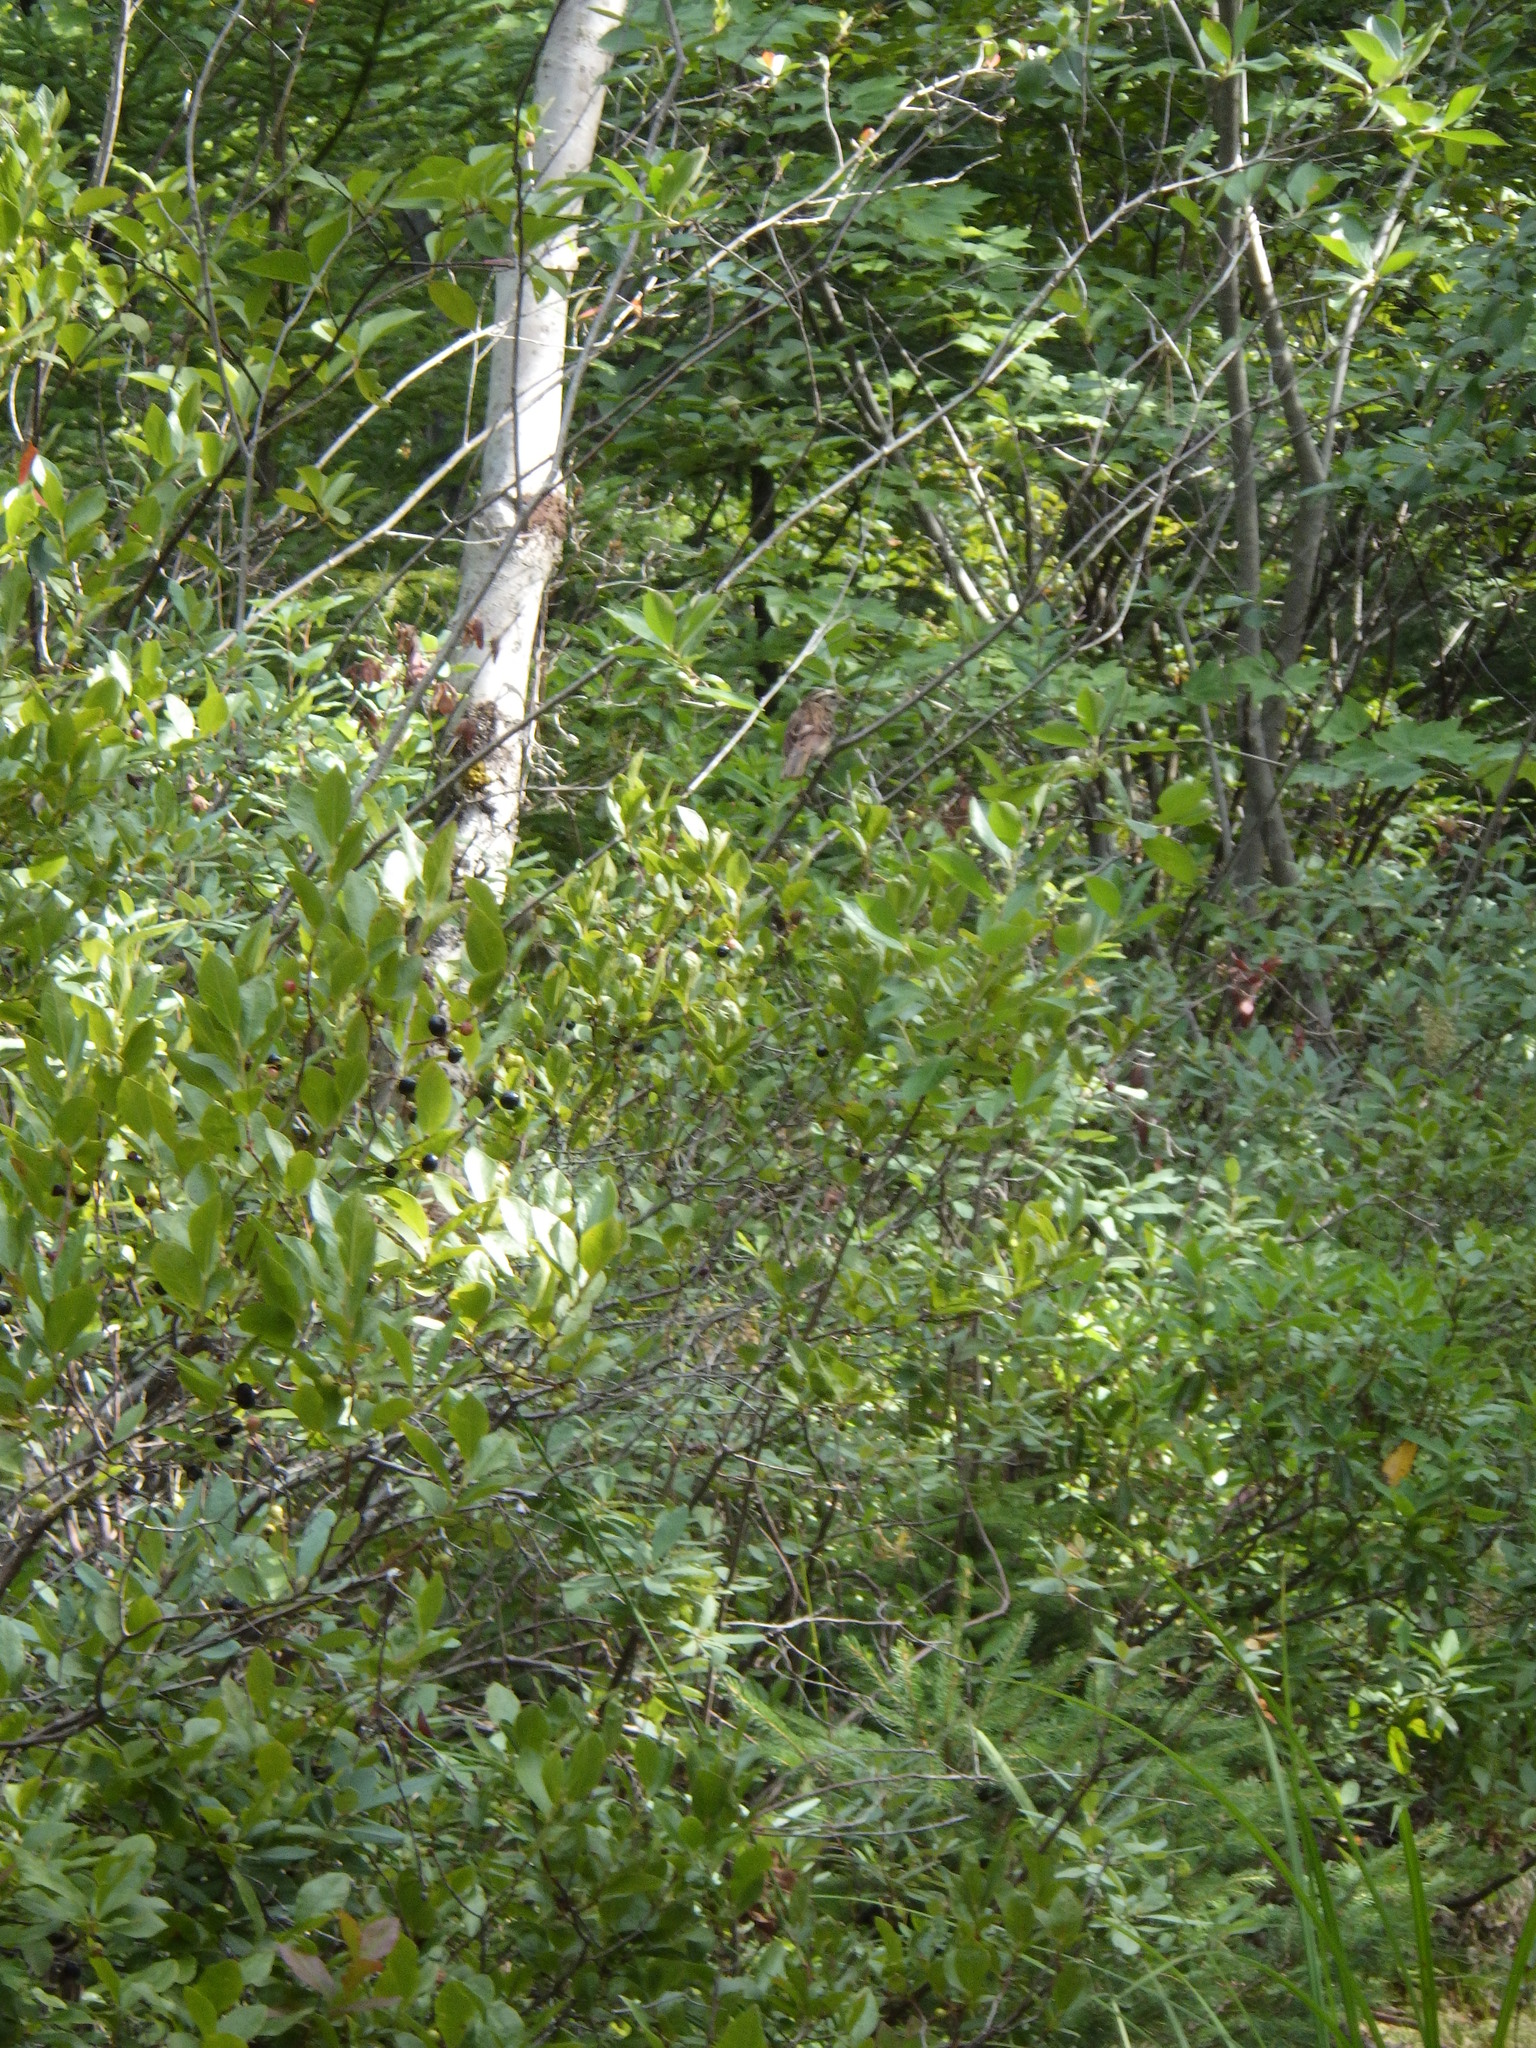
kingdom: Plantae
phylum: Tracheophyta
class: Magnoliopsida
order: Ericales
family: Ericaceae
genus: Gaylussacia
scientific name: Gaylussacia baccata
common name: Black huckleberry
